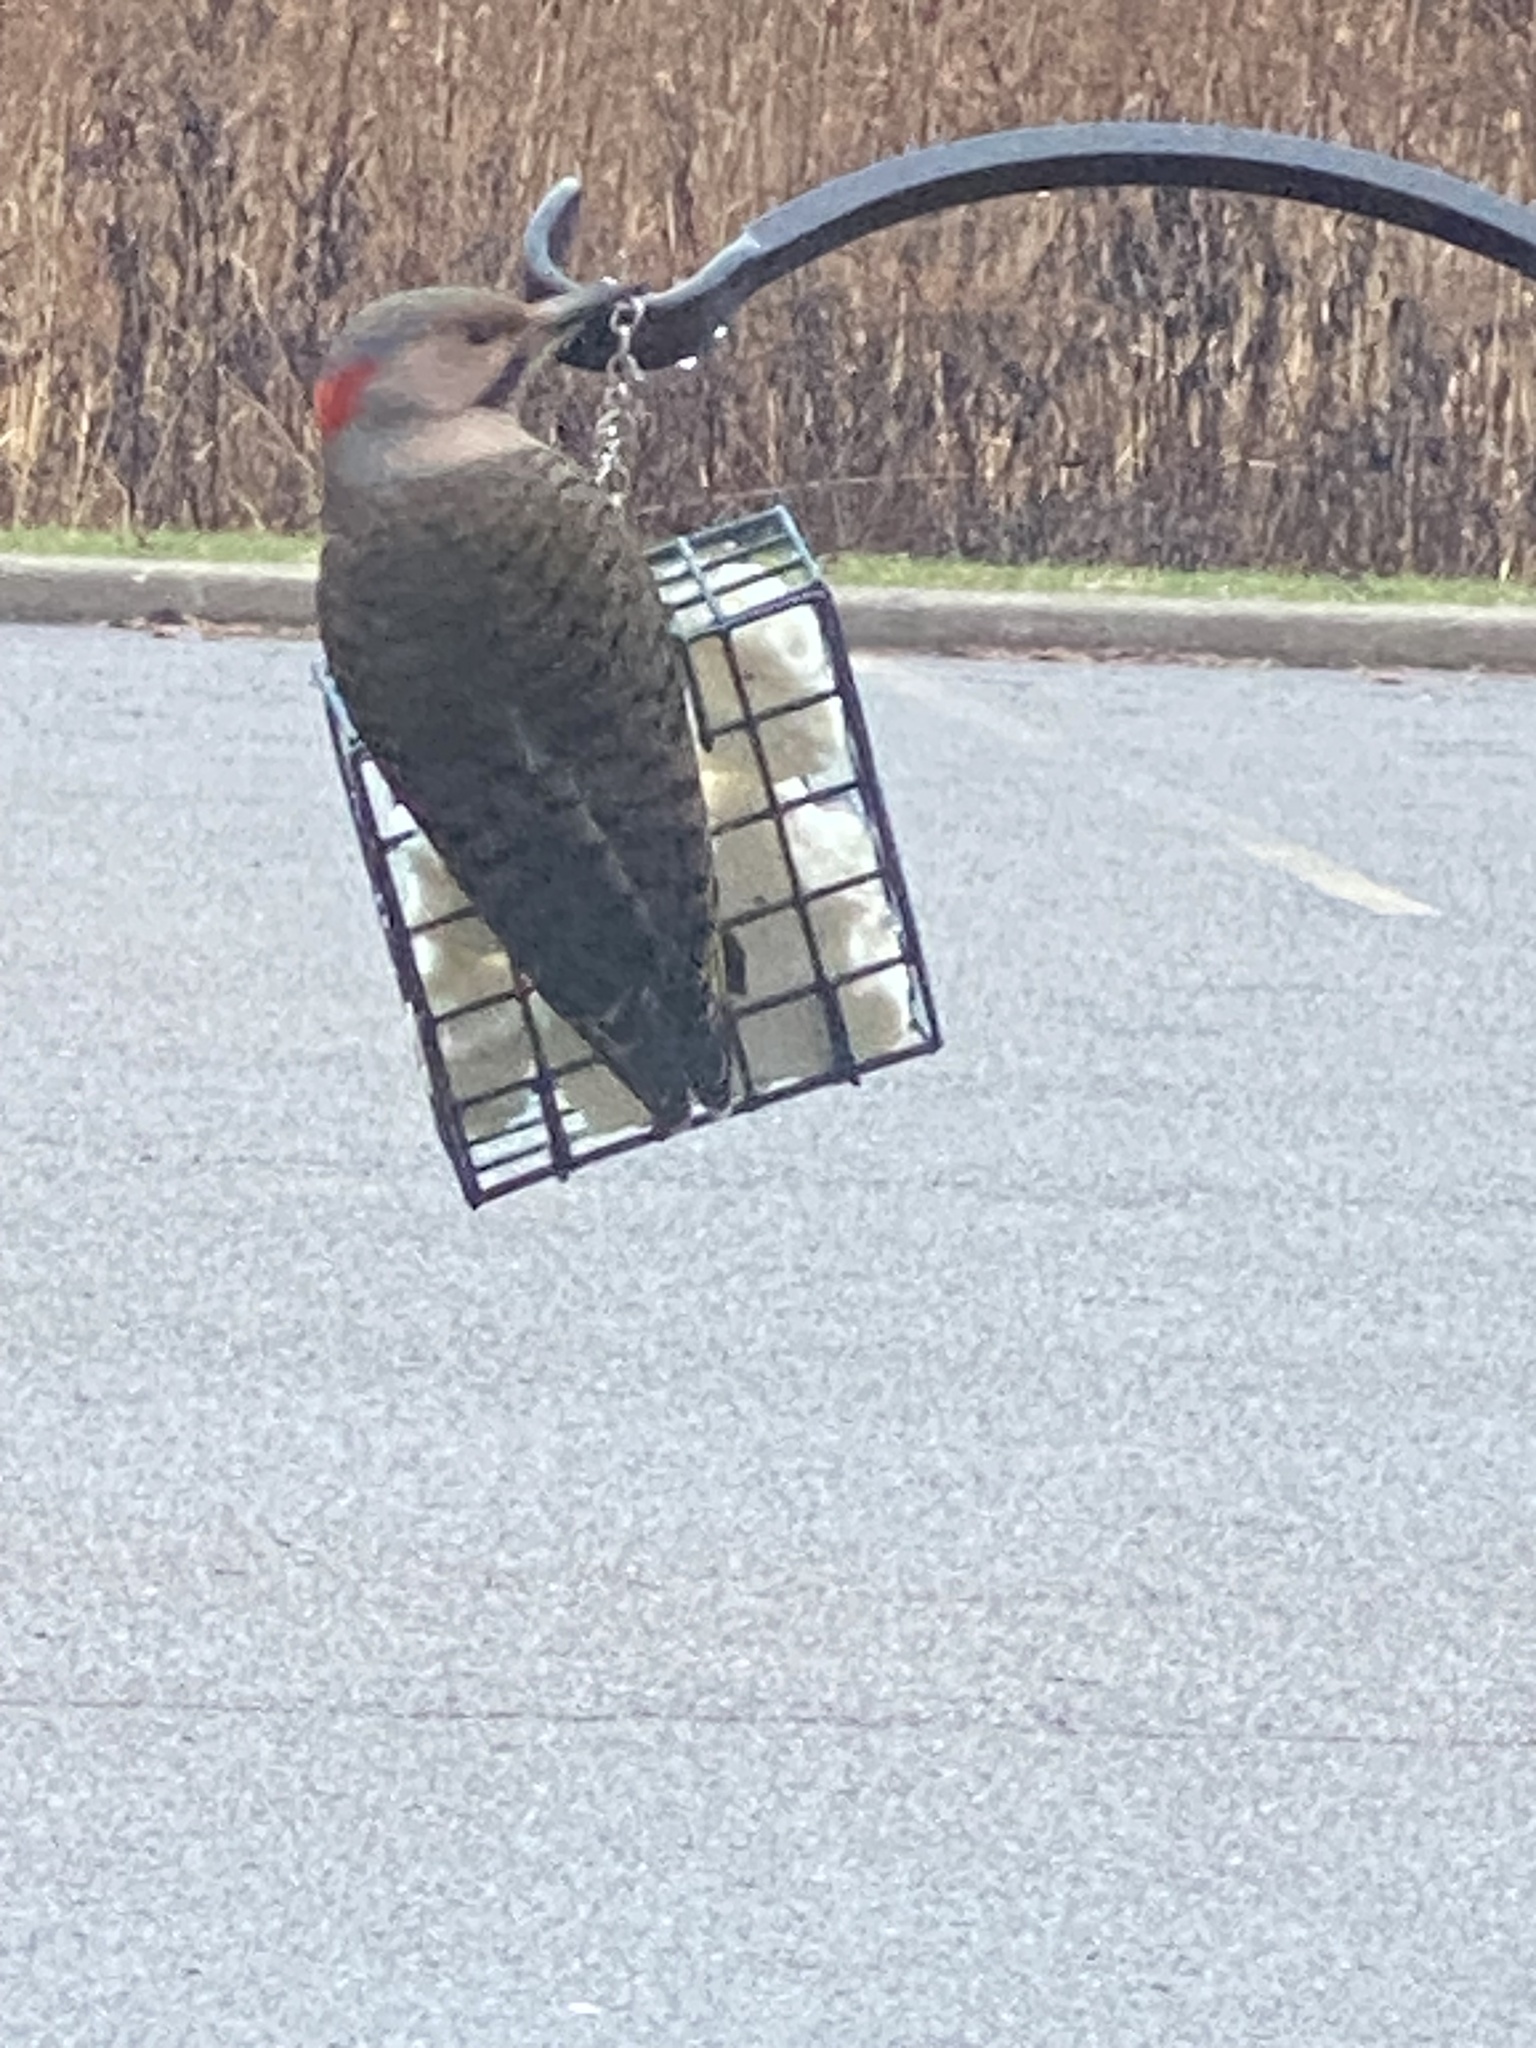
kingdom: Animalia
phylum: Chordata
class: Aves
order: Piciformes
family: Picidae
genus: Colaptes
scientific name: Colaptes auratus
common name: Northern flicker
